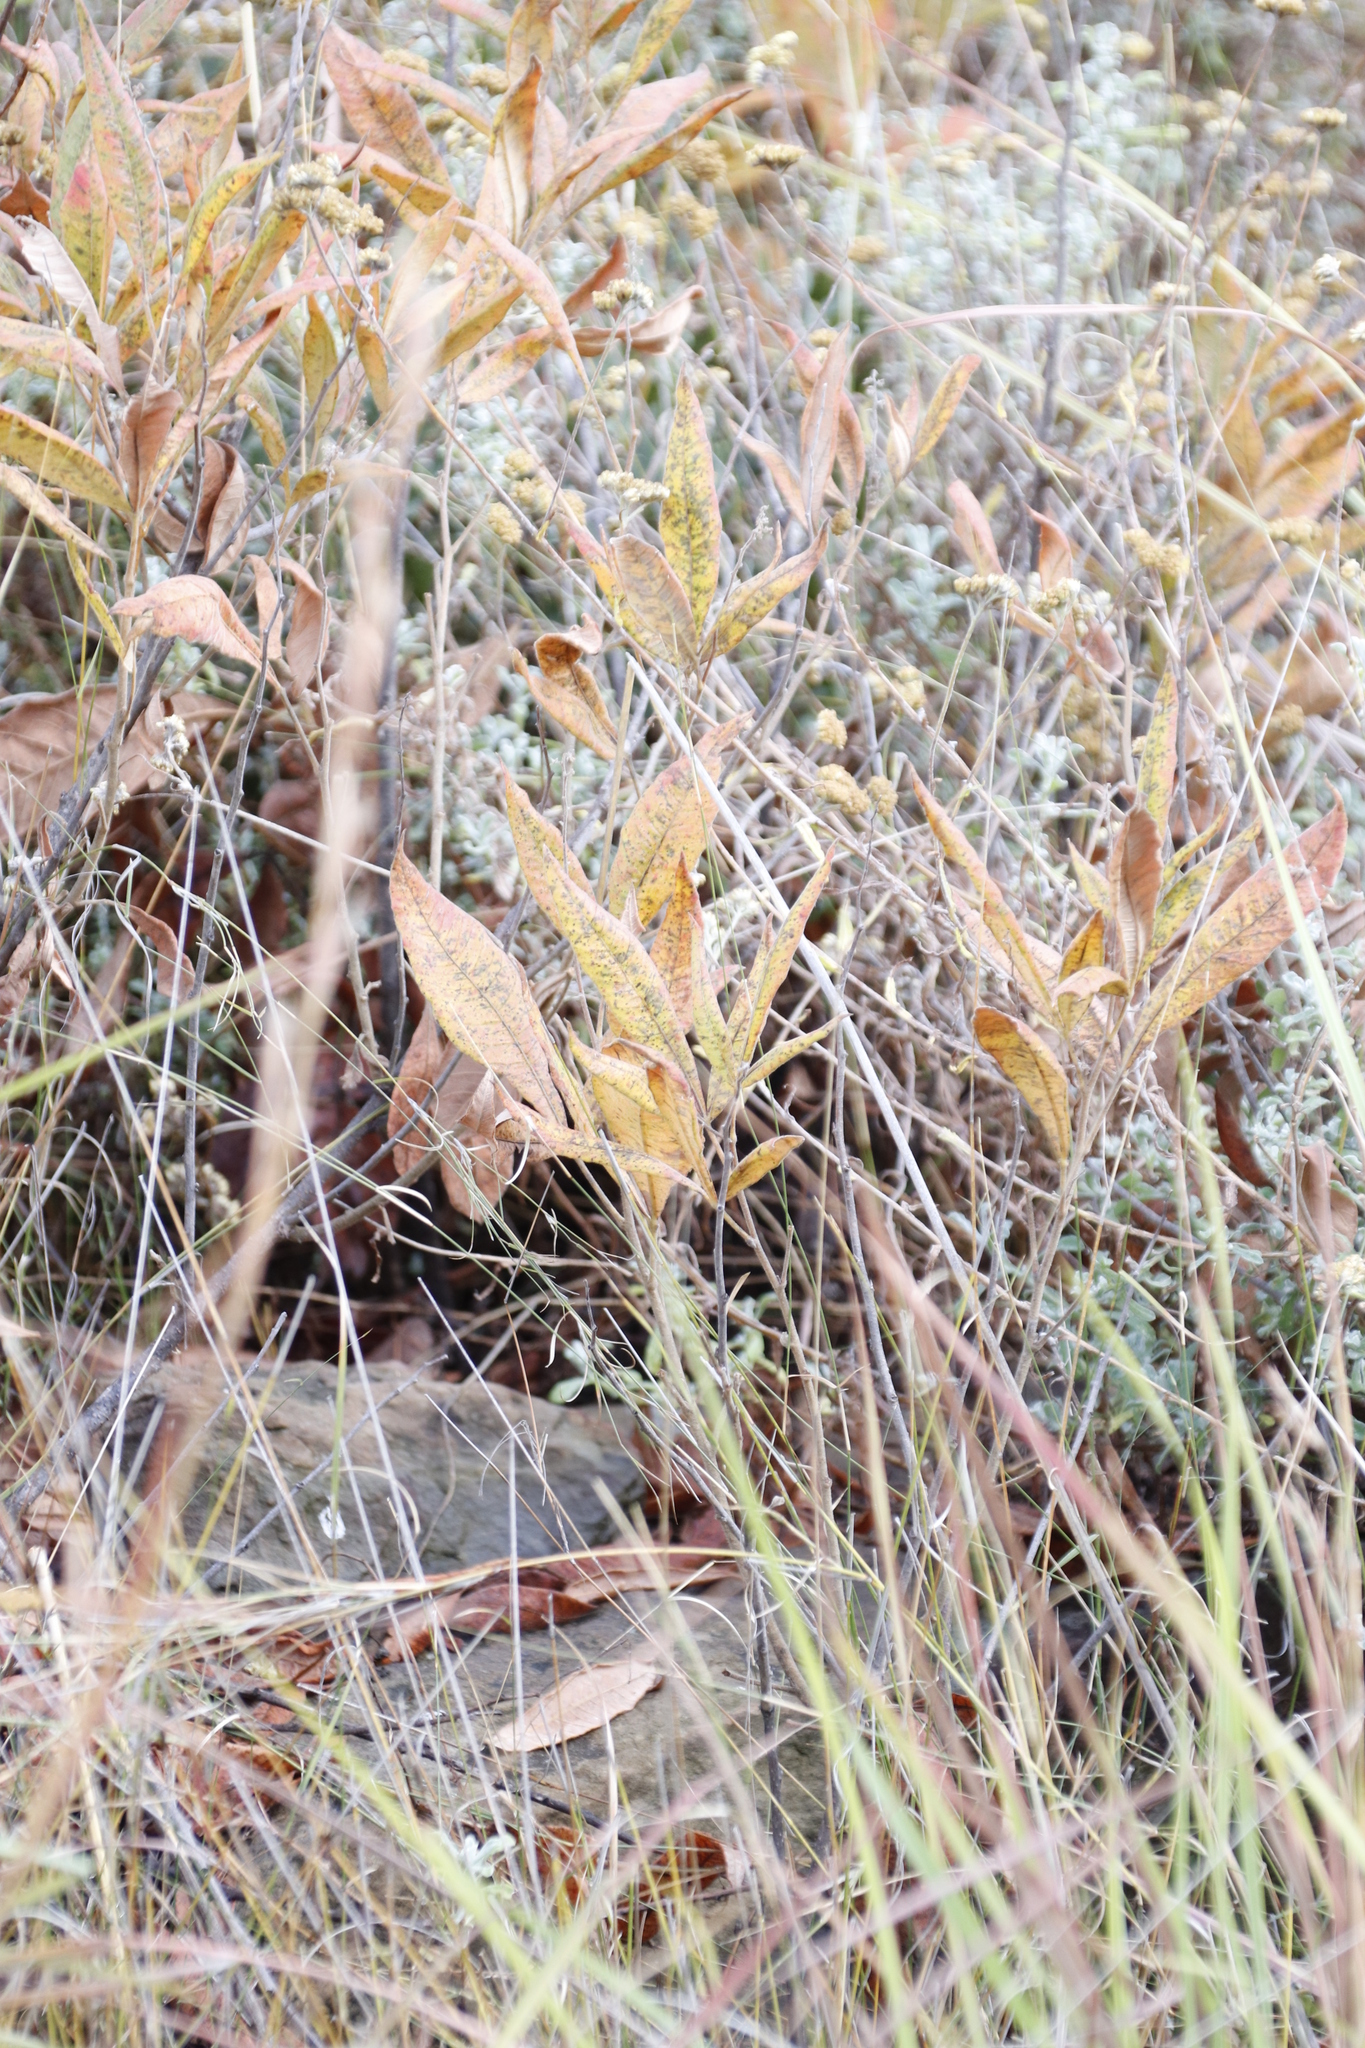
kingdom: Plantae
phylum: Tracheophyta
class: Magnoliopsida
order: Sapindales
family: Anacardiaceae
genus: Searsia
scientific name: Searsia discolor
